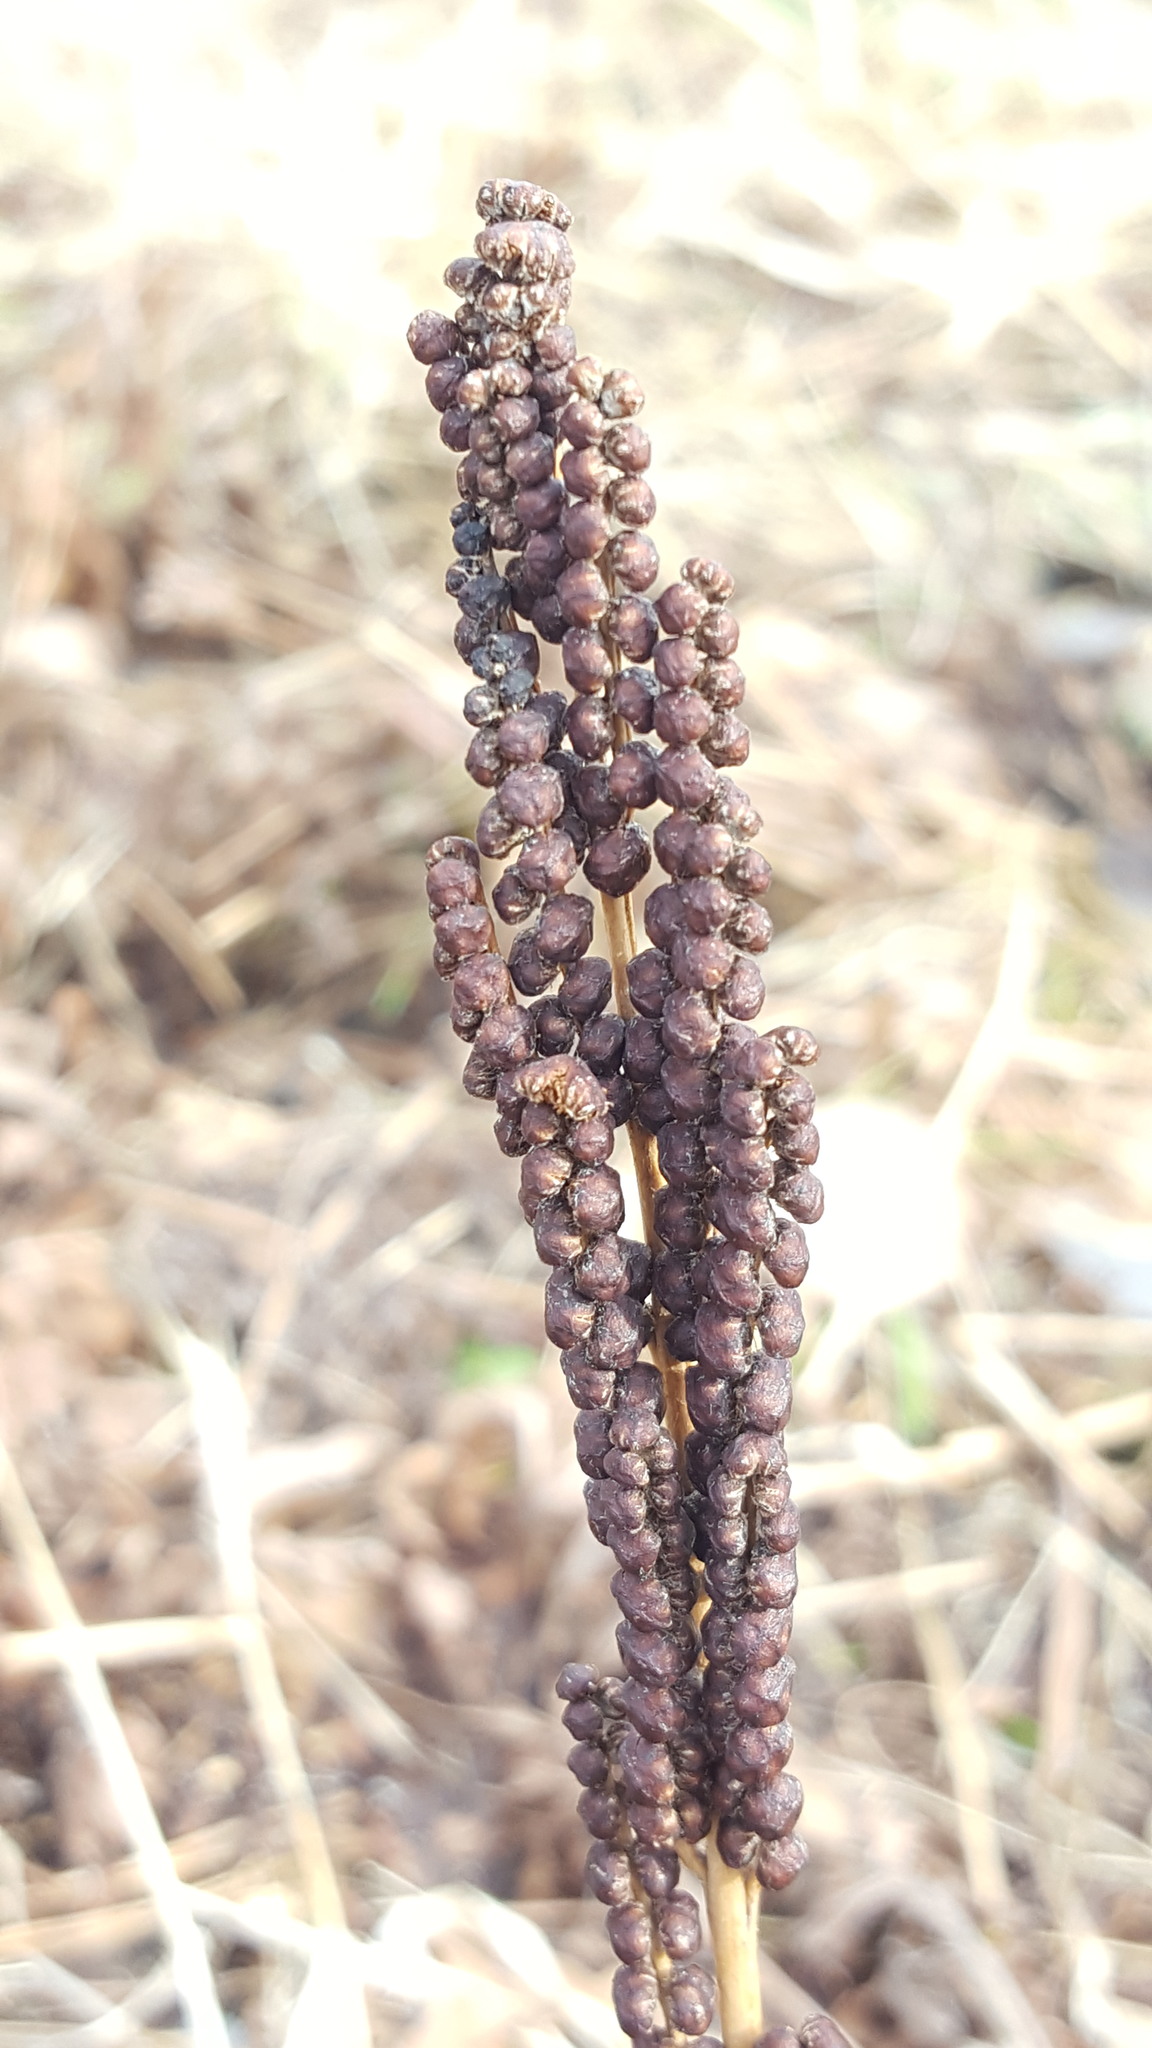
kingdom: Plantae
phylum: Tracheophyta
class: Polypodiopsida
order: Polypodiales
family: Onocleaceae
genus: Onoclea
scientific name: Onoclea sensibilis
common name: Sensitive fern
